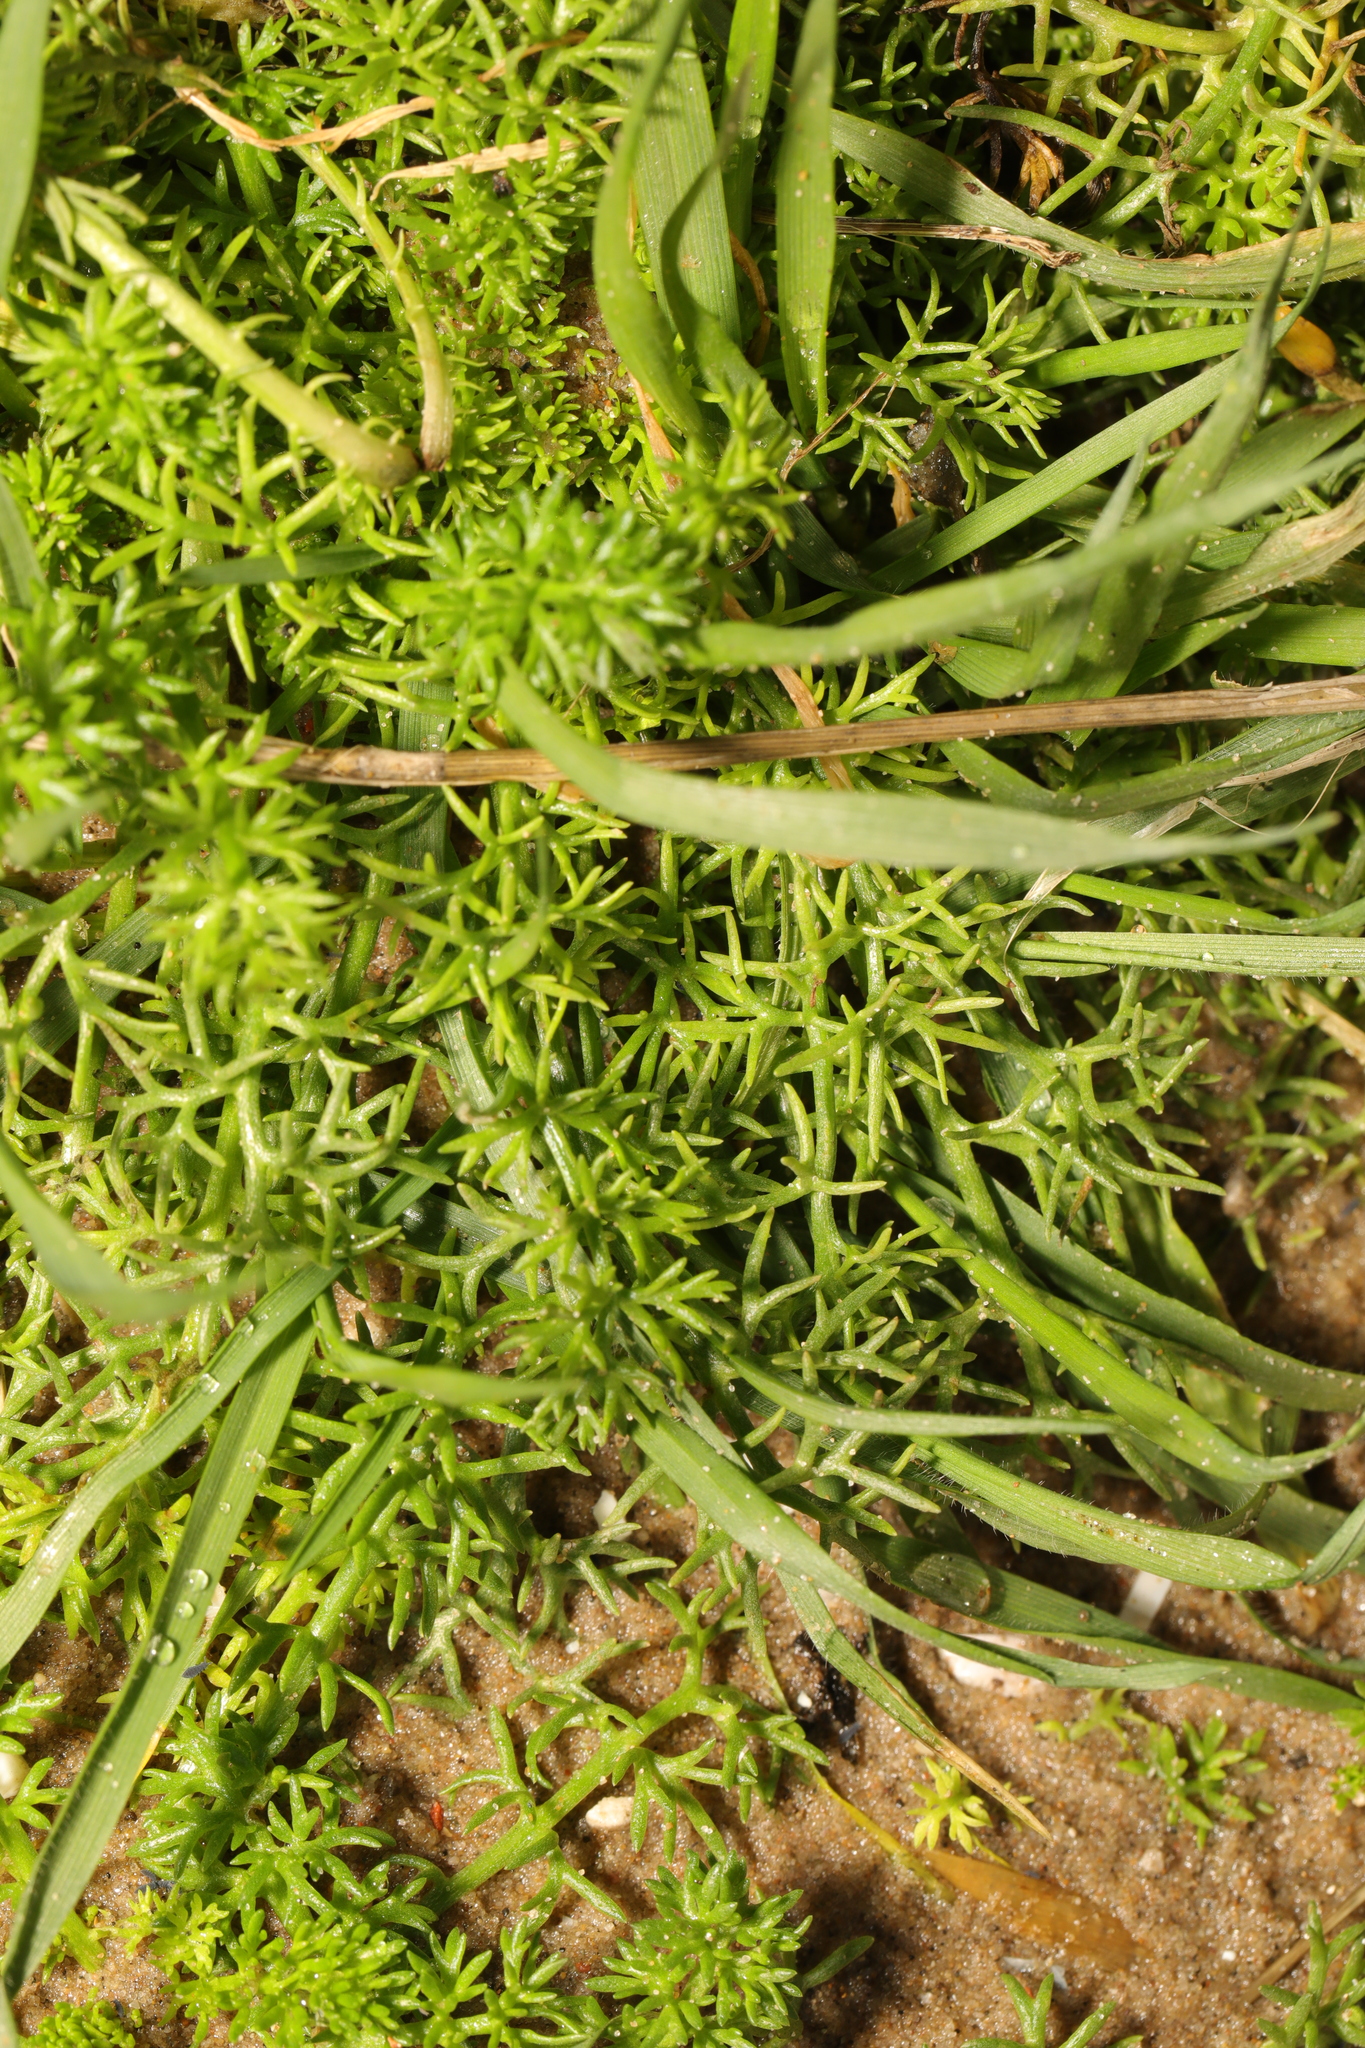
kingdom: Plantae
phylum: Tracheophyta
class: Magnoliopsida
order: Asterales
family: Asteraceae
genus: Tripleurospermum
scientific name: Tripleurospermum maritimum
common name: Sea mayweed
